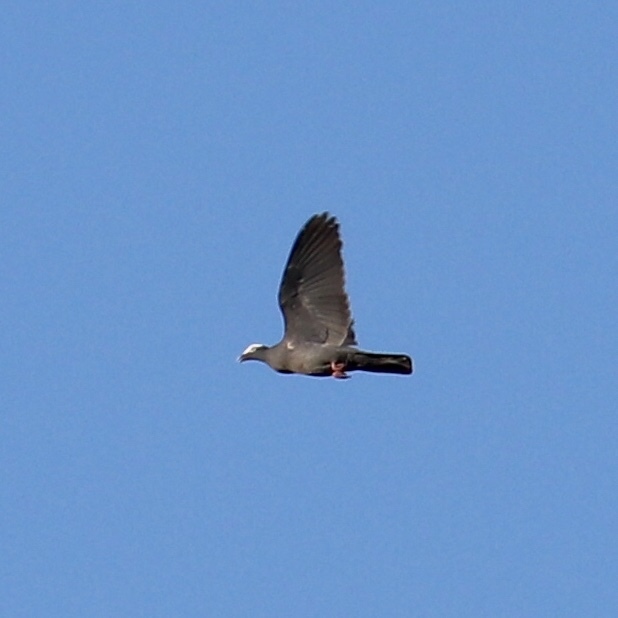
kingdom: Animalia
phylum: Chordata
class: Aves
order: Columbiformes
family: Columbidae
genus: Patagioenas
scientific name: Patagioenas leucocephala
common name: White-crowned pigeon
